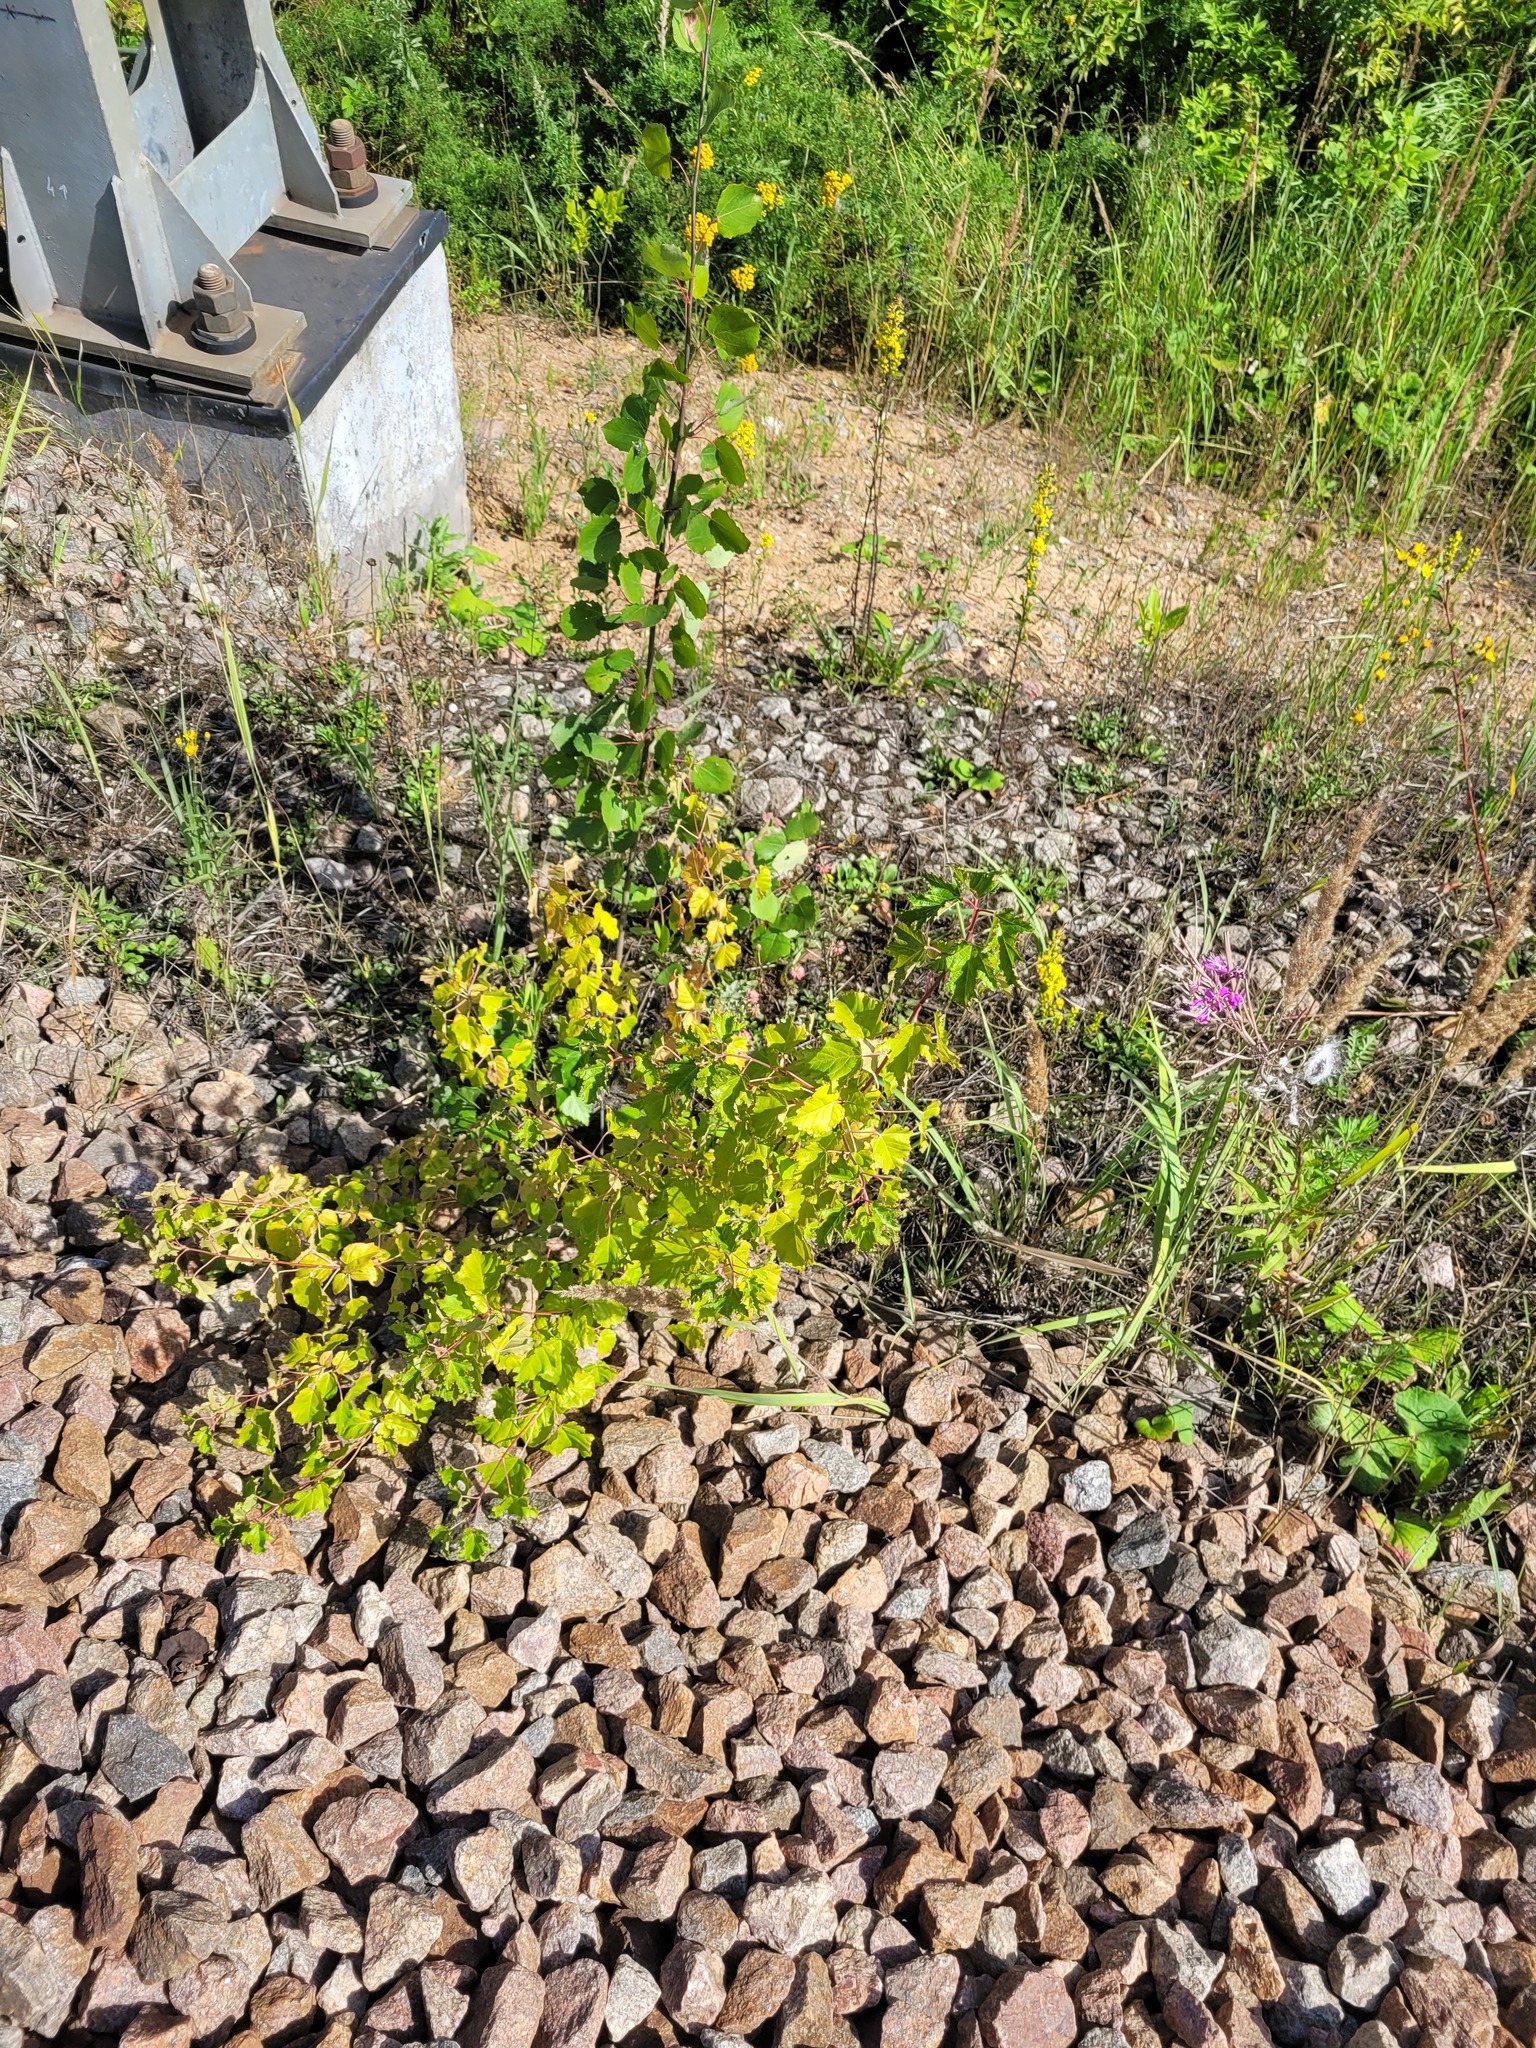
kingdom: Plantae
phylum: Tracheophyta
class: Magnoliopsida
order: Sapindales
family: Sapindaceae
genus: Acer
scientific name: Acer tataricum
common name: Tartar maple
